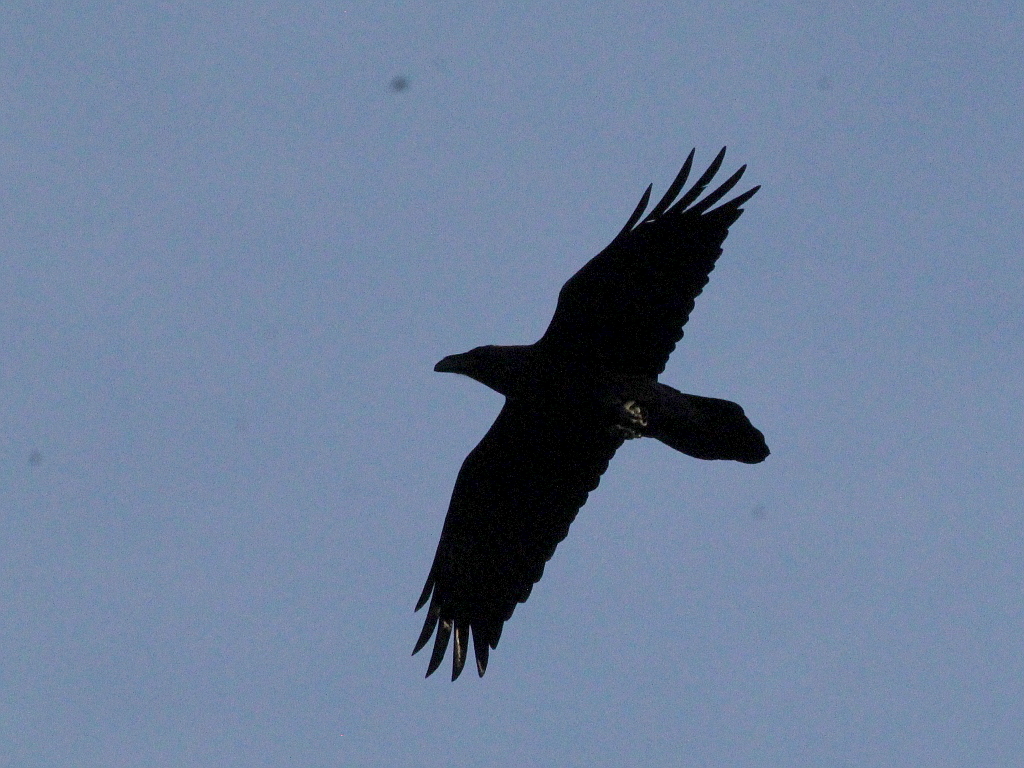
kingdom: Animalia
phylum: Chordata
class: Aves
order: Passeriformes
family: Corvidae
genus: Corvus
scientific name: Corvus corax
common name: Common raven
